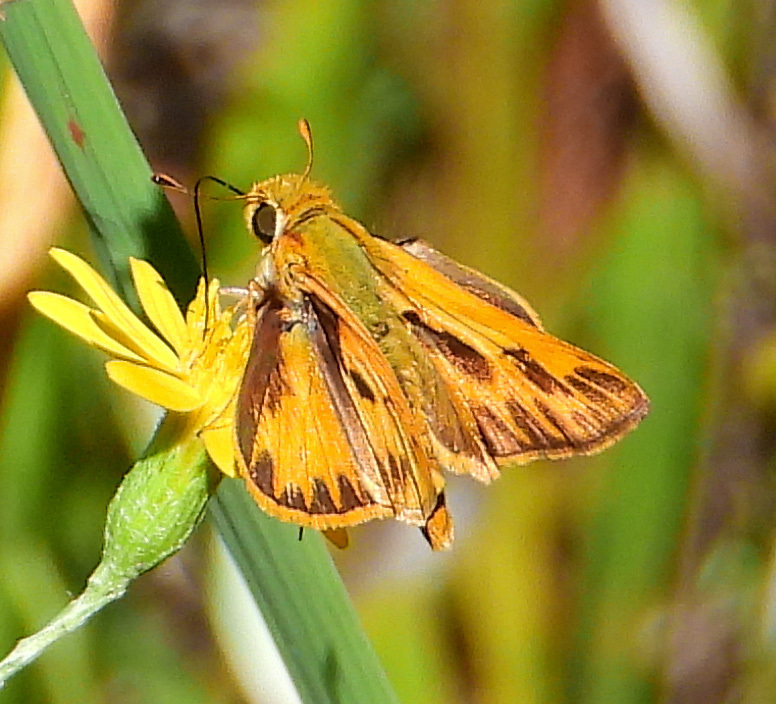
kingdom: Animalia
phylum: Arthropoda
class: Insecta
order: Lepidoptera
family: Hesperiidae
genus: Hylephila
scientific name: Hylephila phyleus
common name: Fiery skipper
